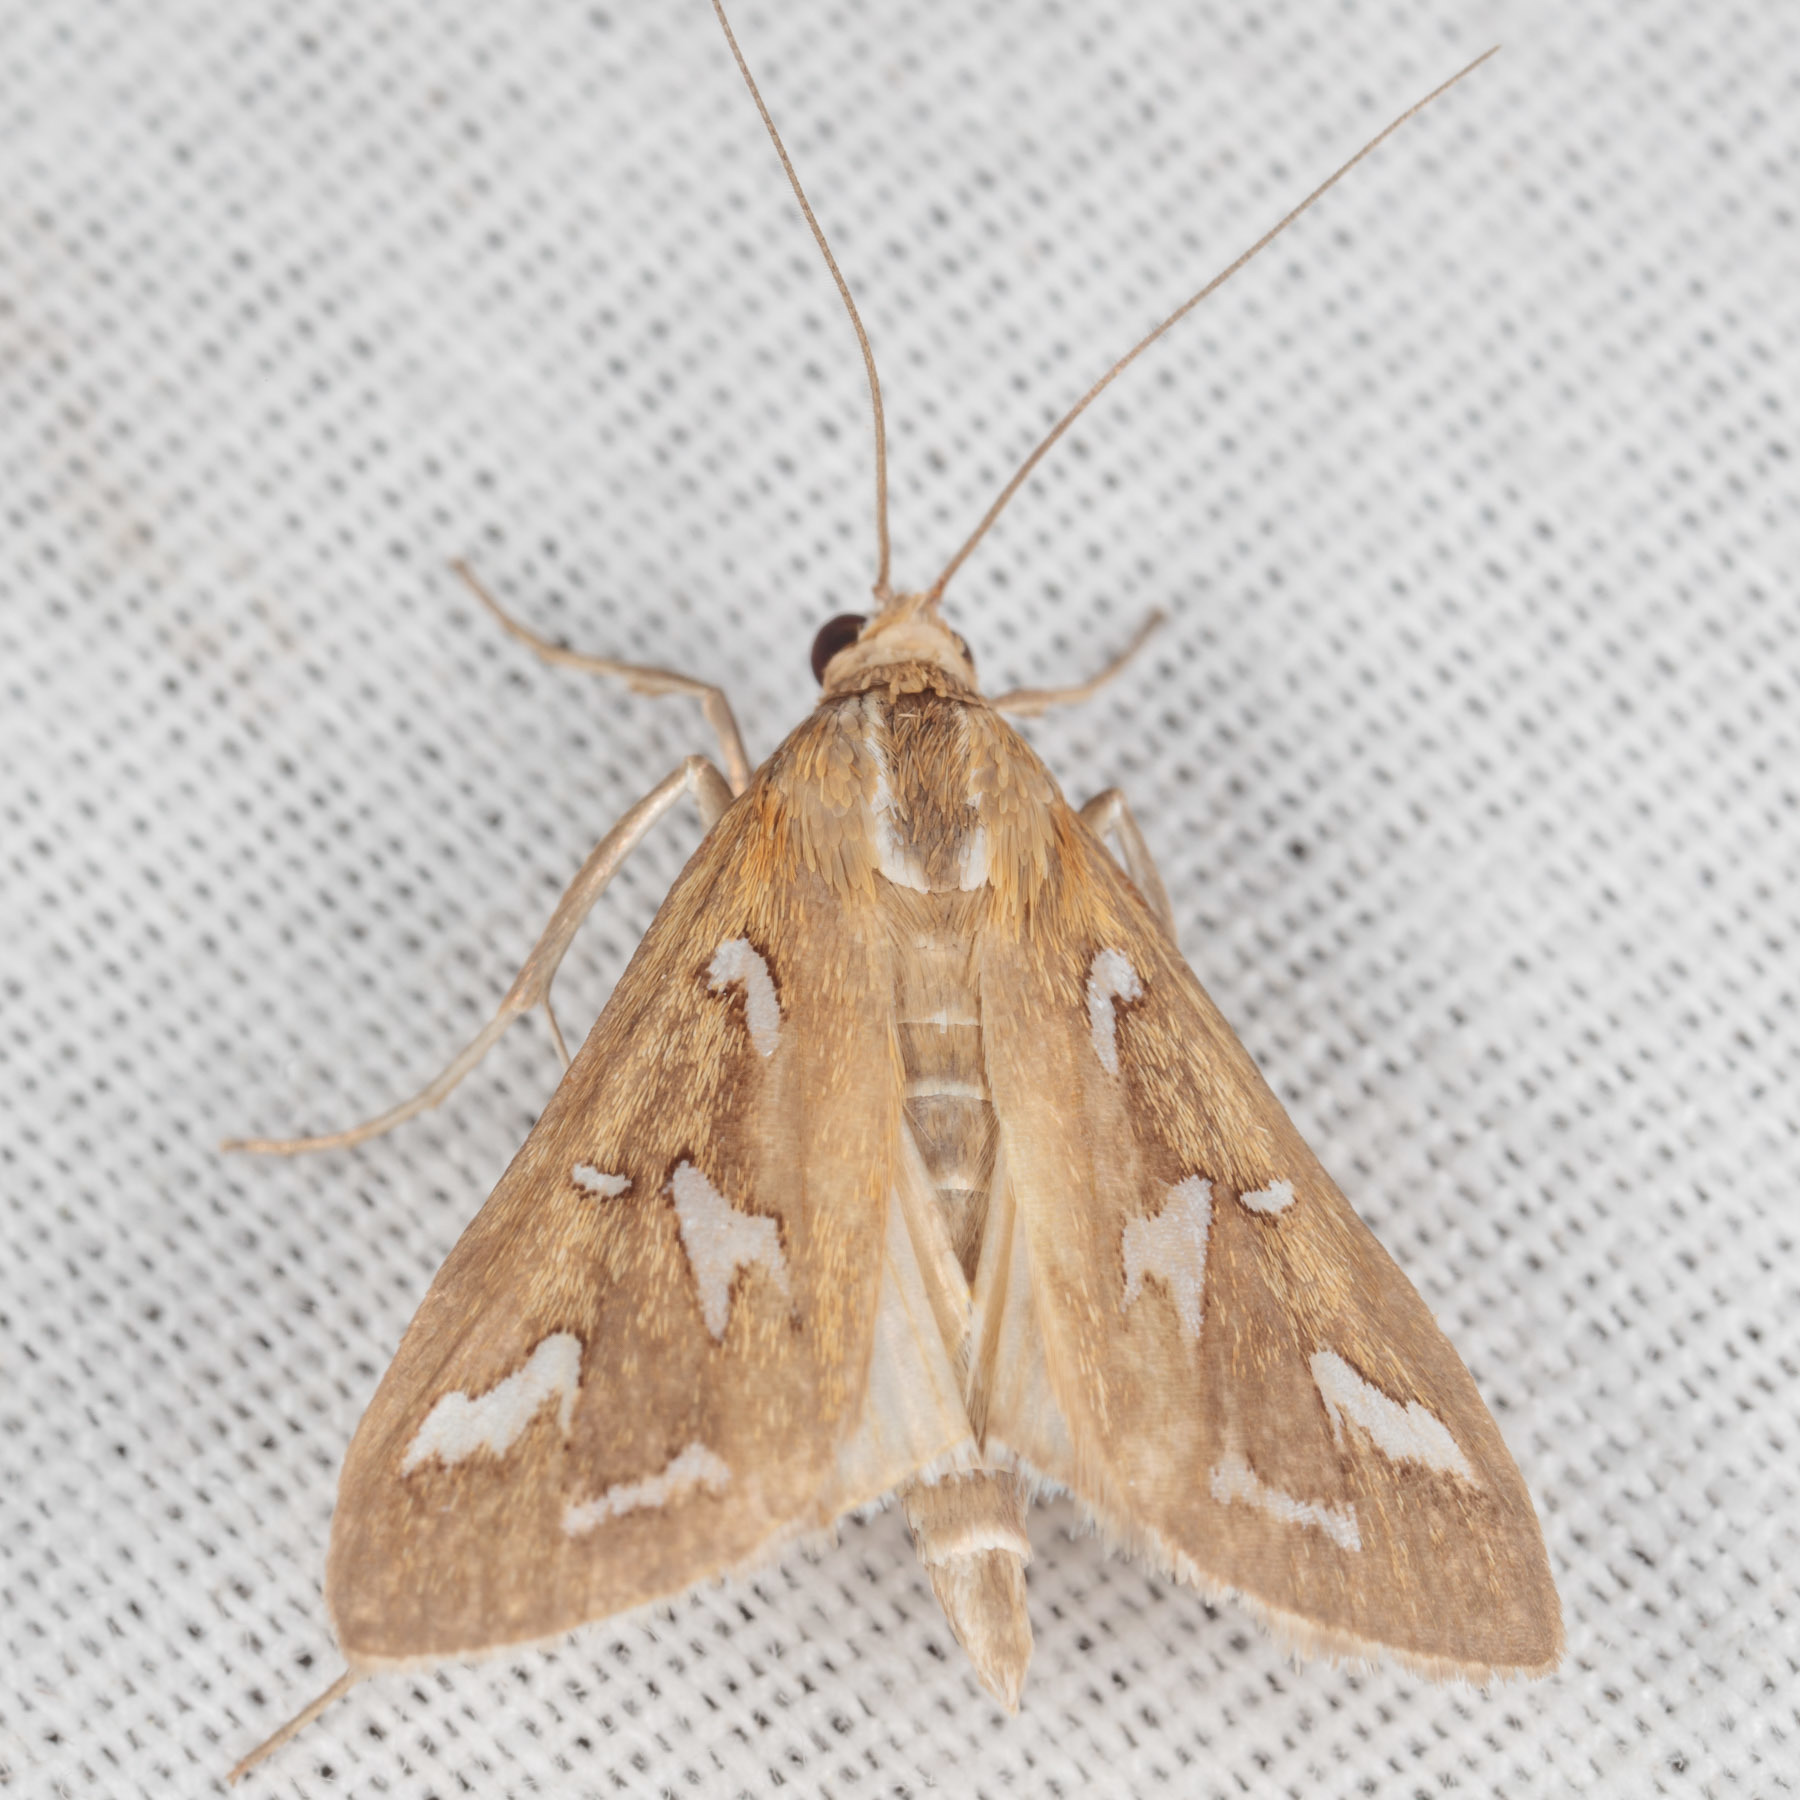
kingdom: Animalia
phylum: Arthropoda
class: Insecta
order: Lepidoptera
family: Crambidae
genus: Diastictis
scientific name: Diastictis fracturalis
